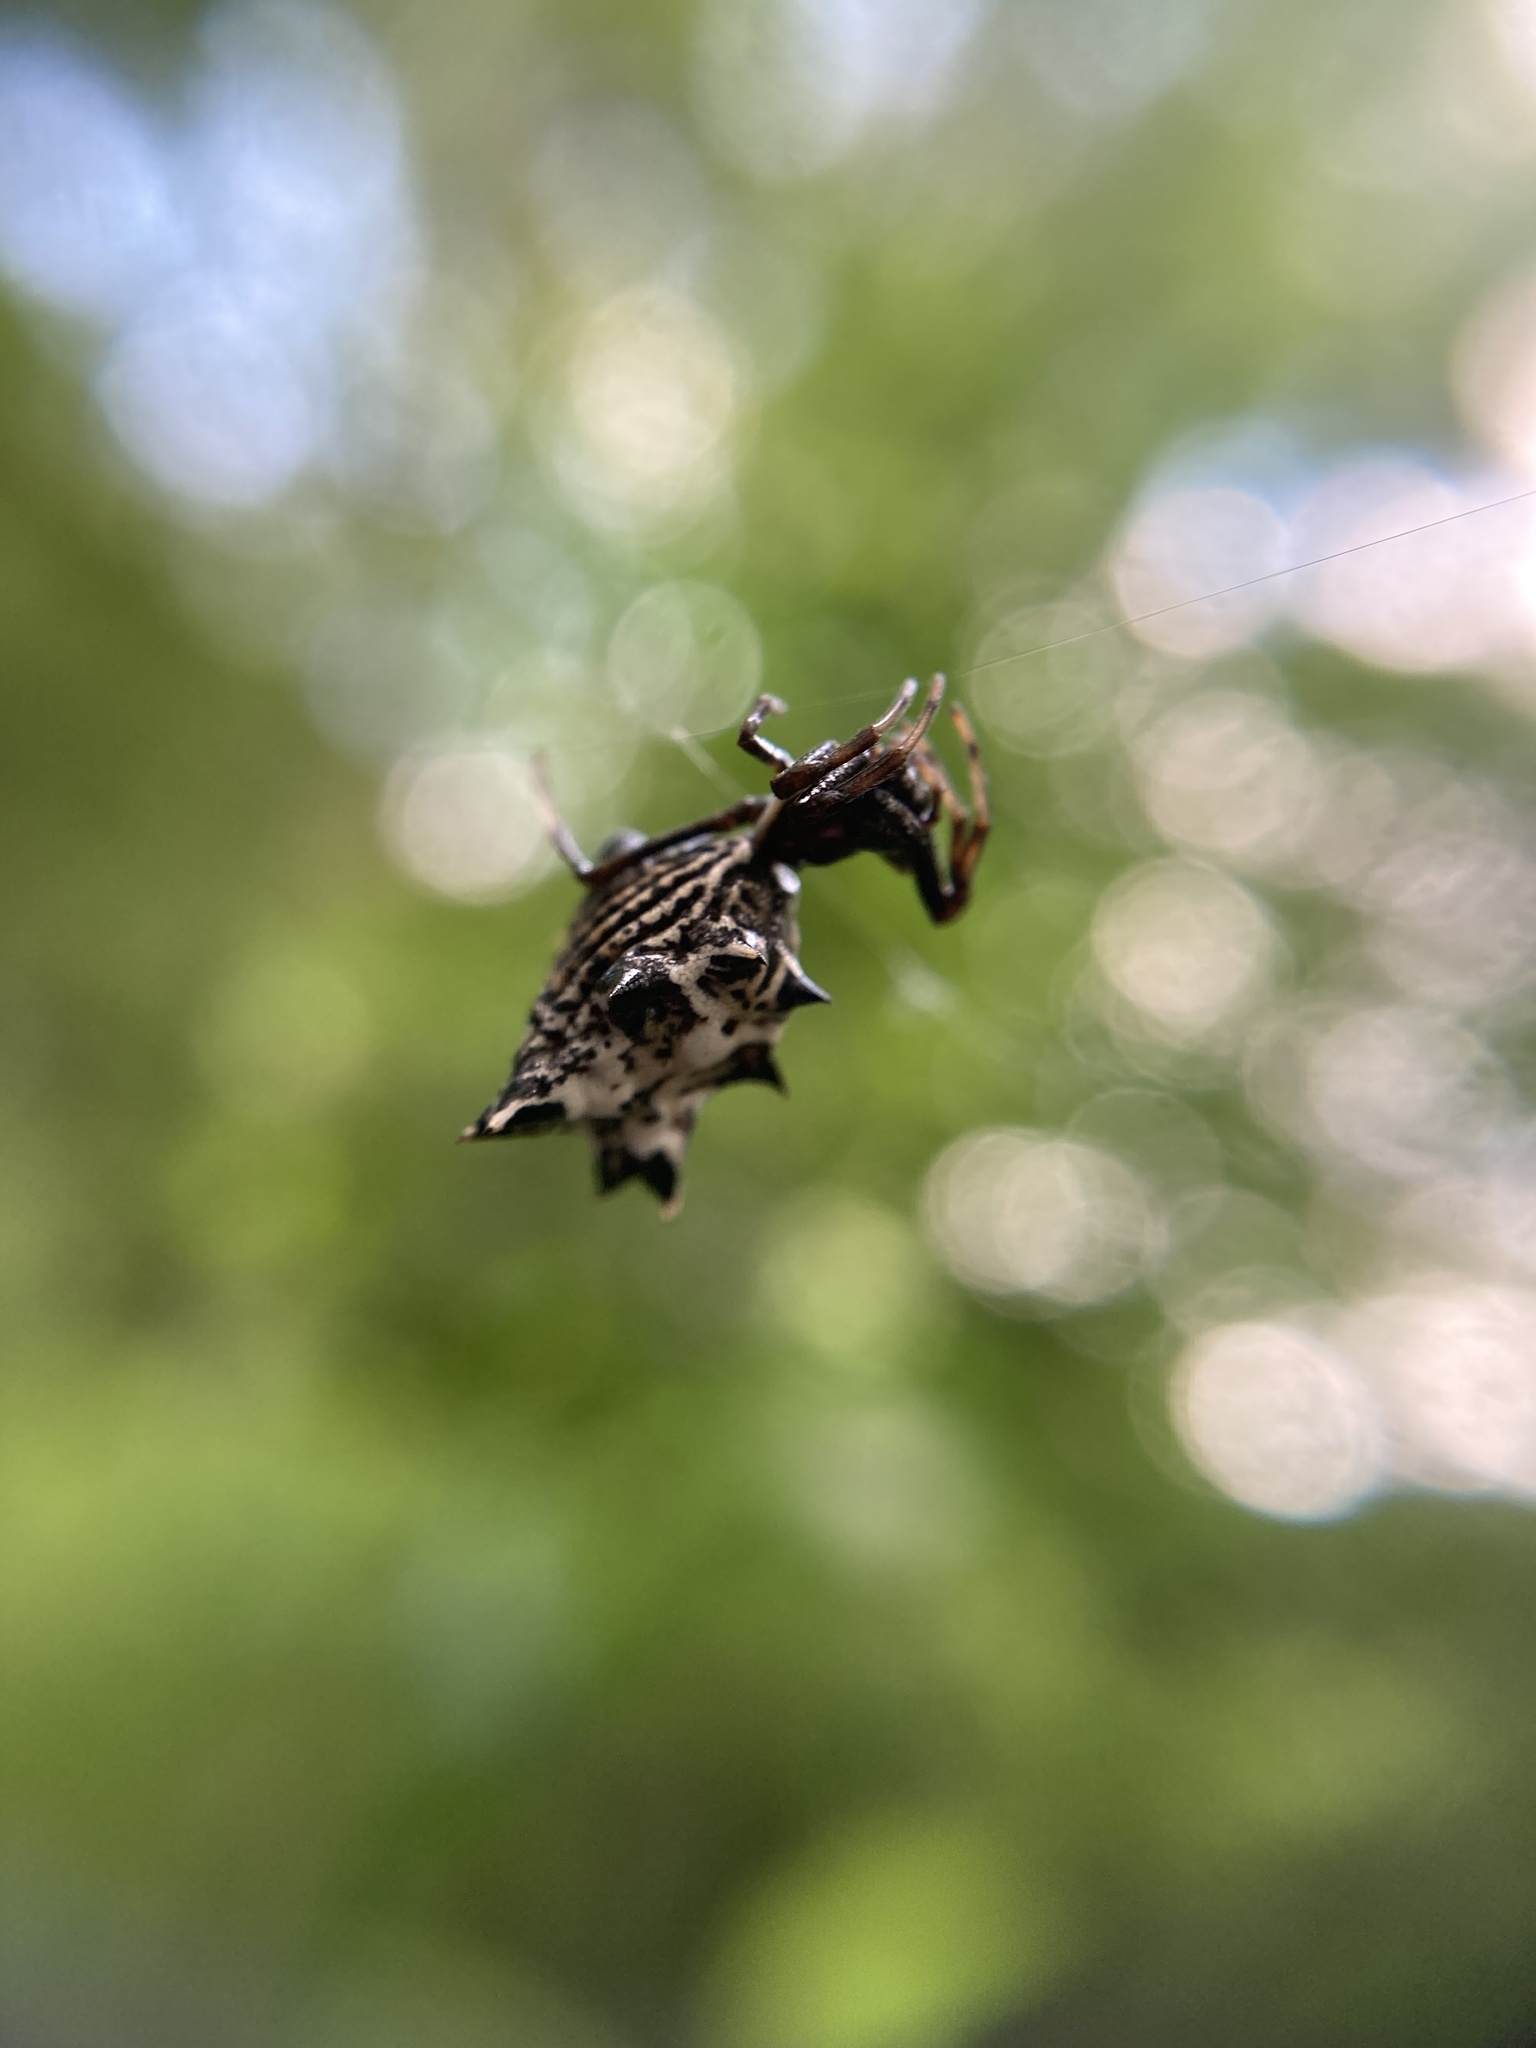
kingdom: Animalia
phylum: Arthropoda
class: Arachnida
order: Araneae
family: Araneidae
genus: Micrathena
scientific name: Micrathena gracilis
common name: Orb weavers
